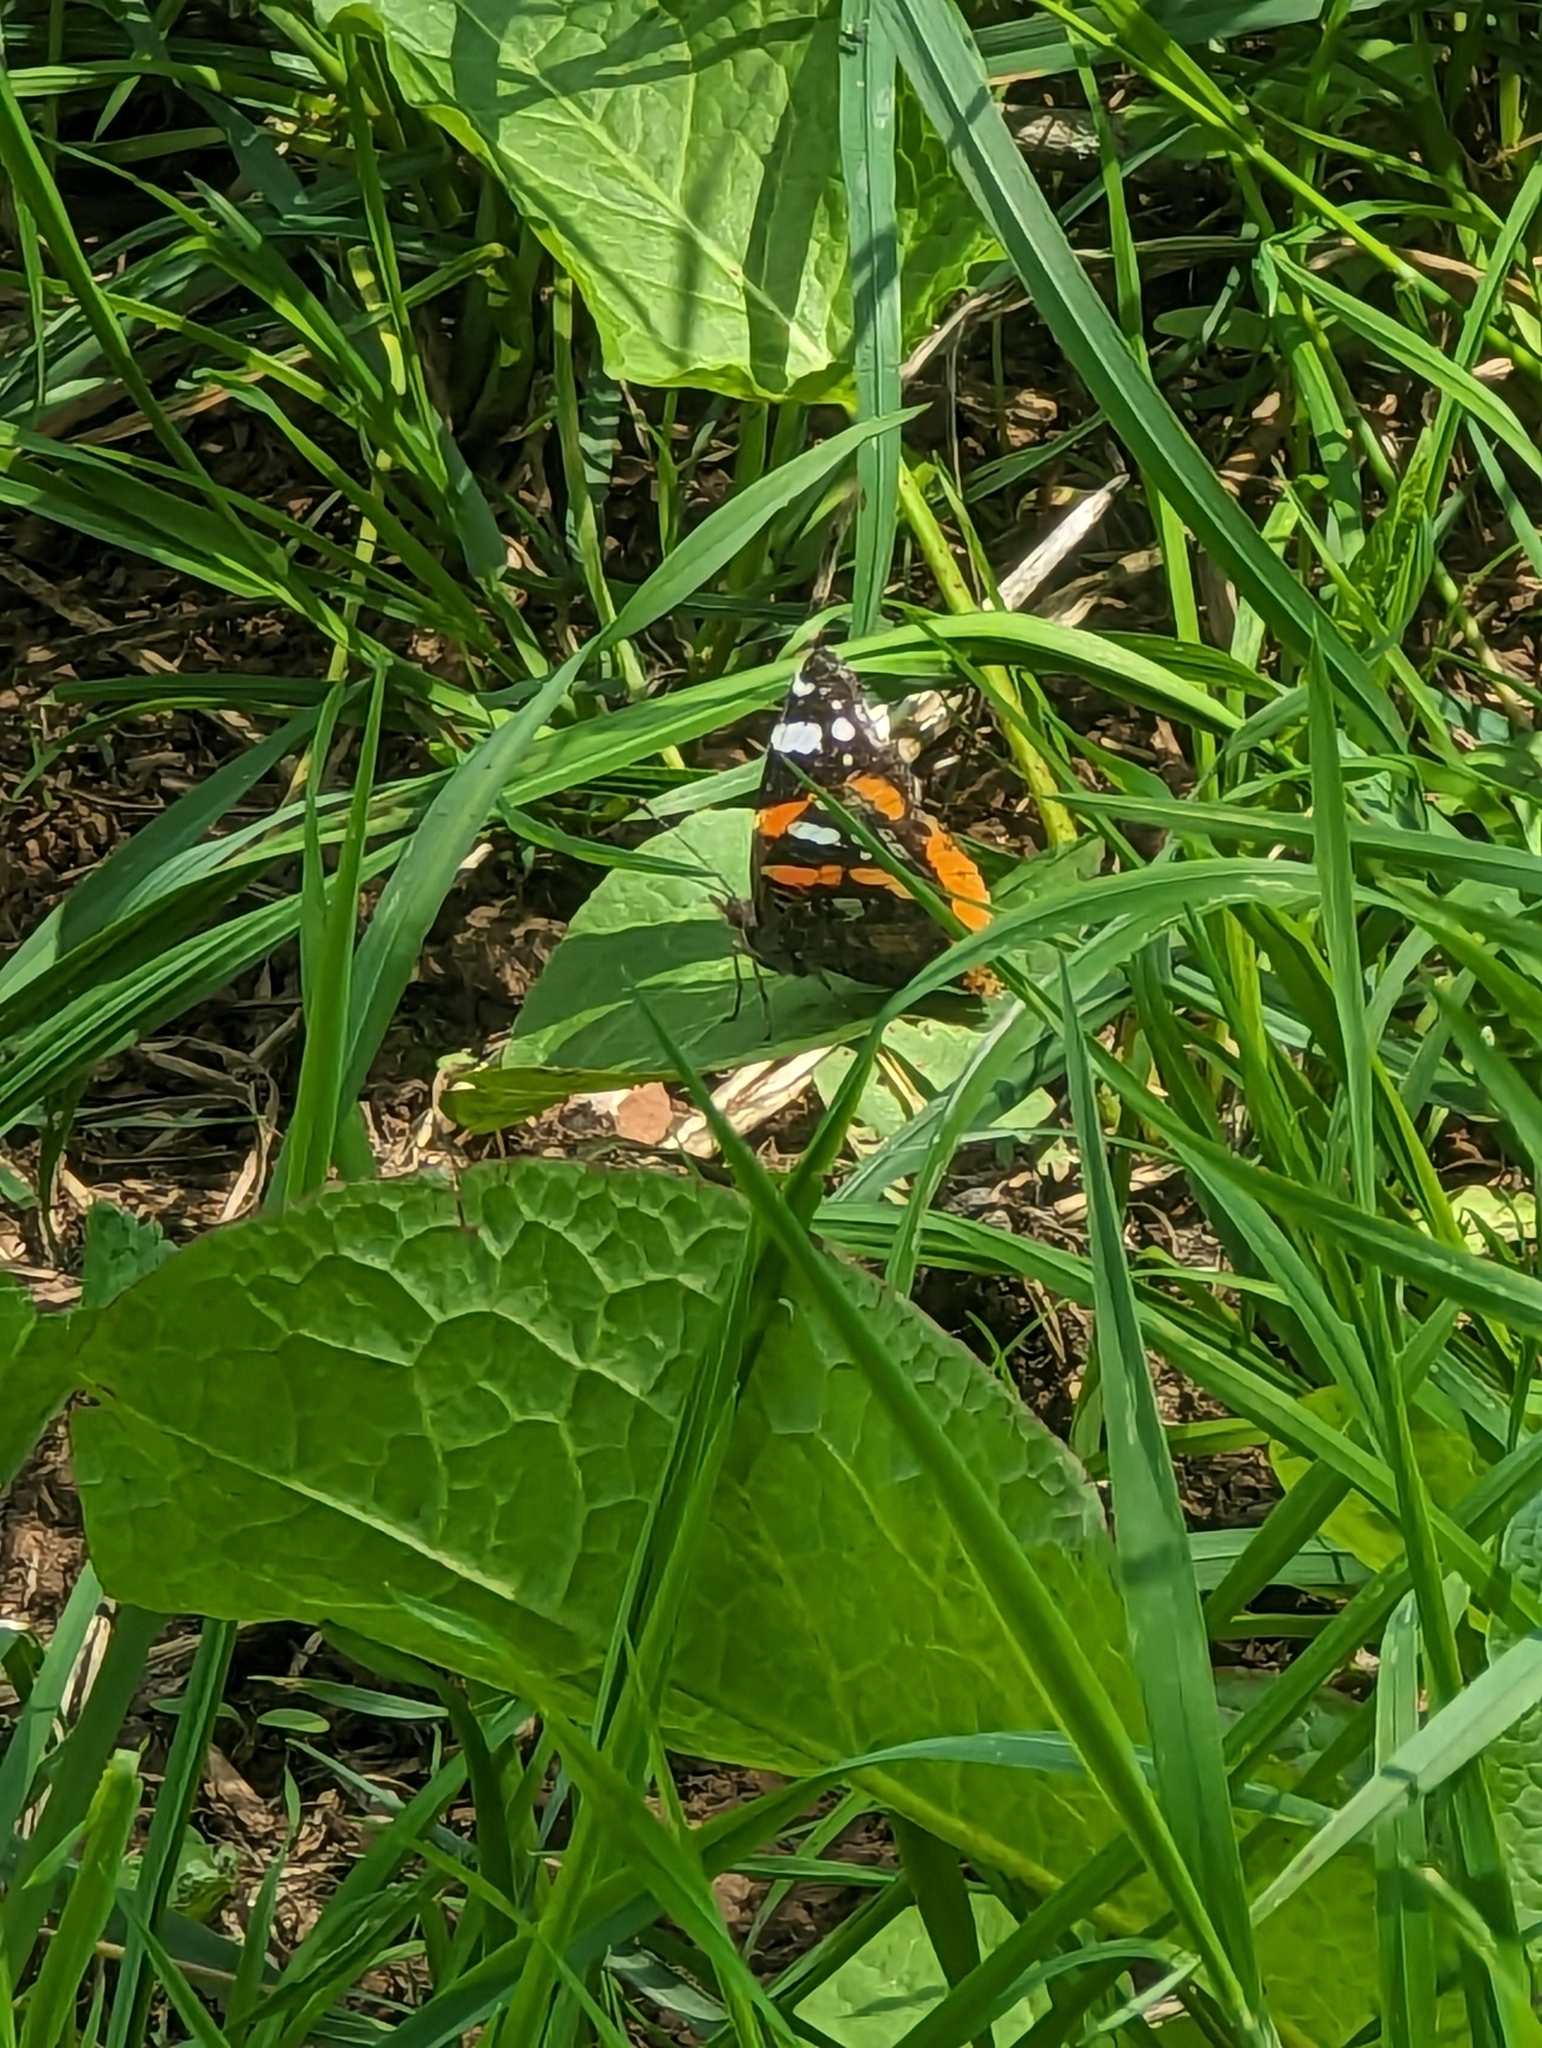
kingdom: Animalia
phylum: Arthropoda
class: Insecta
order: Lepidoptera
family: Nymphalidae
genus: Vanessa
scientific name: Vanessa atalanta
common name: Red admiral
